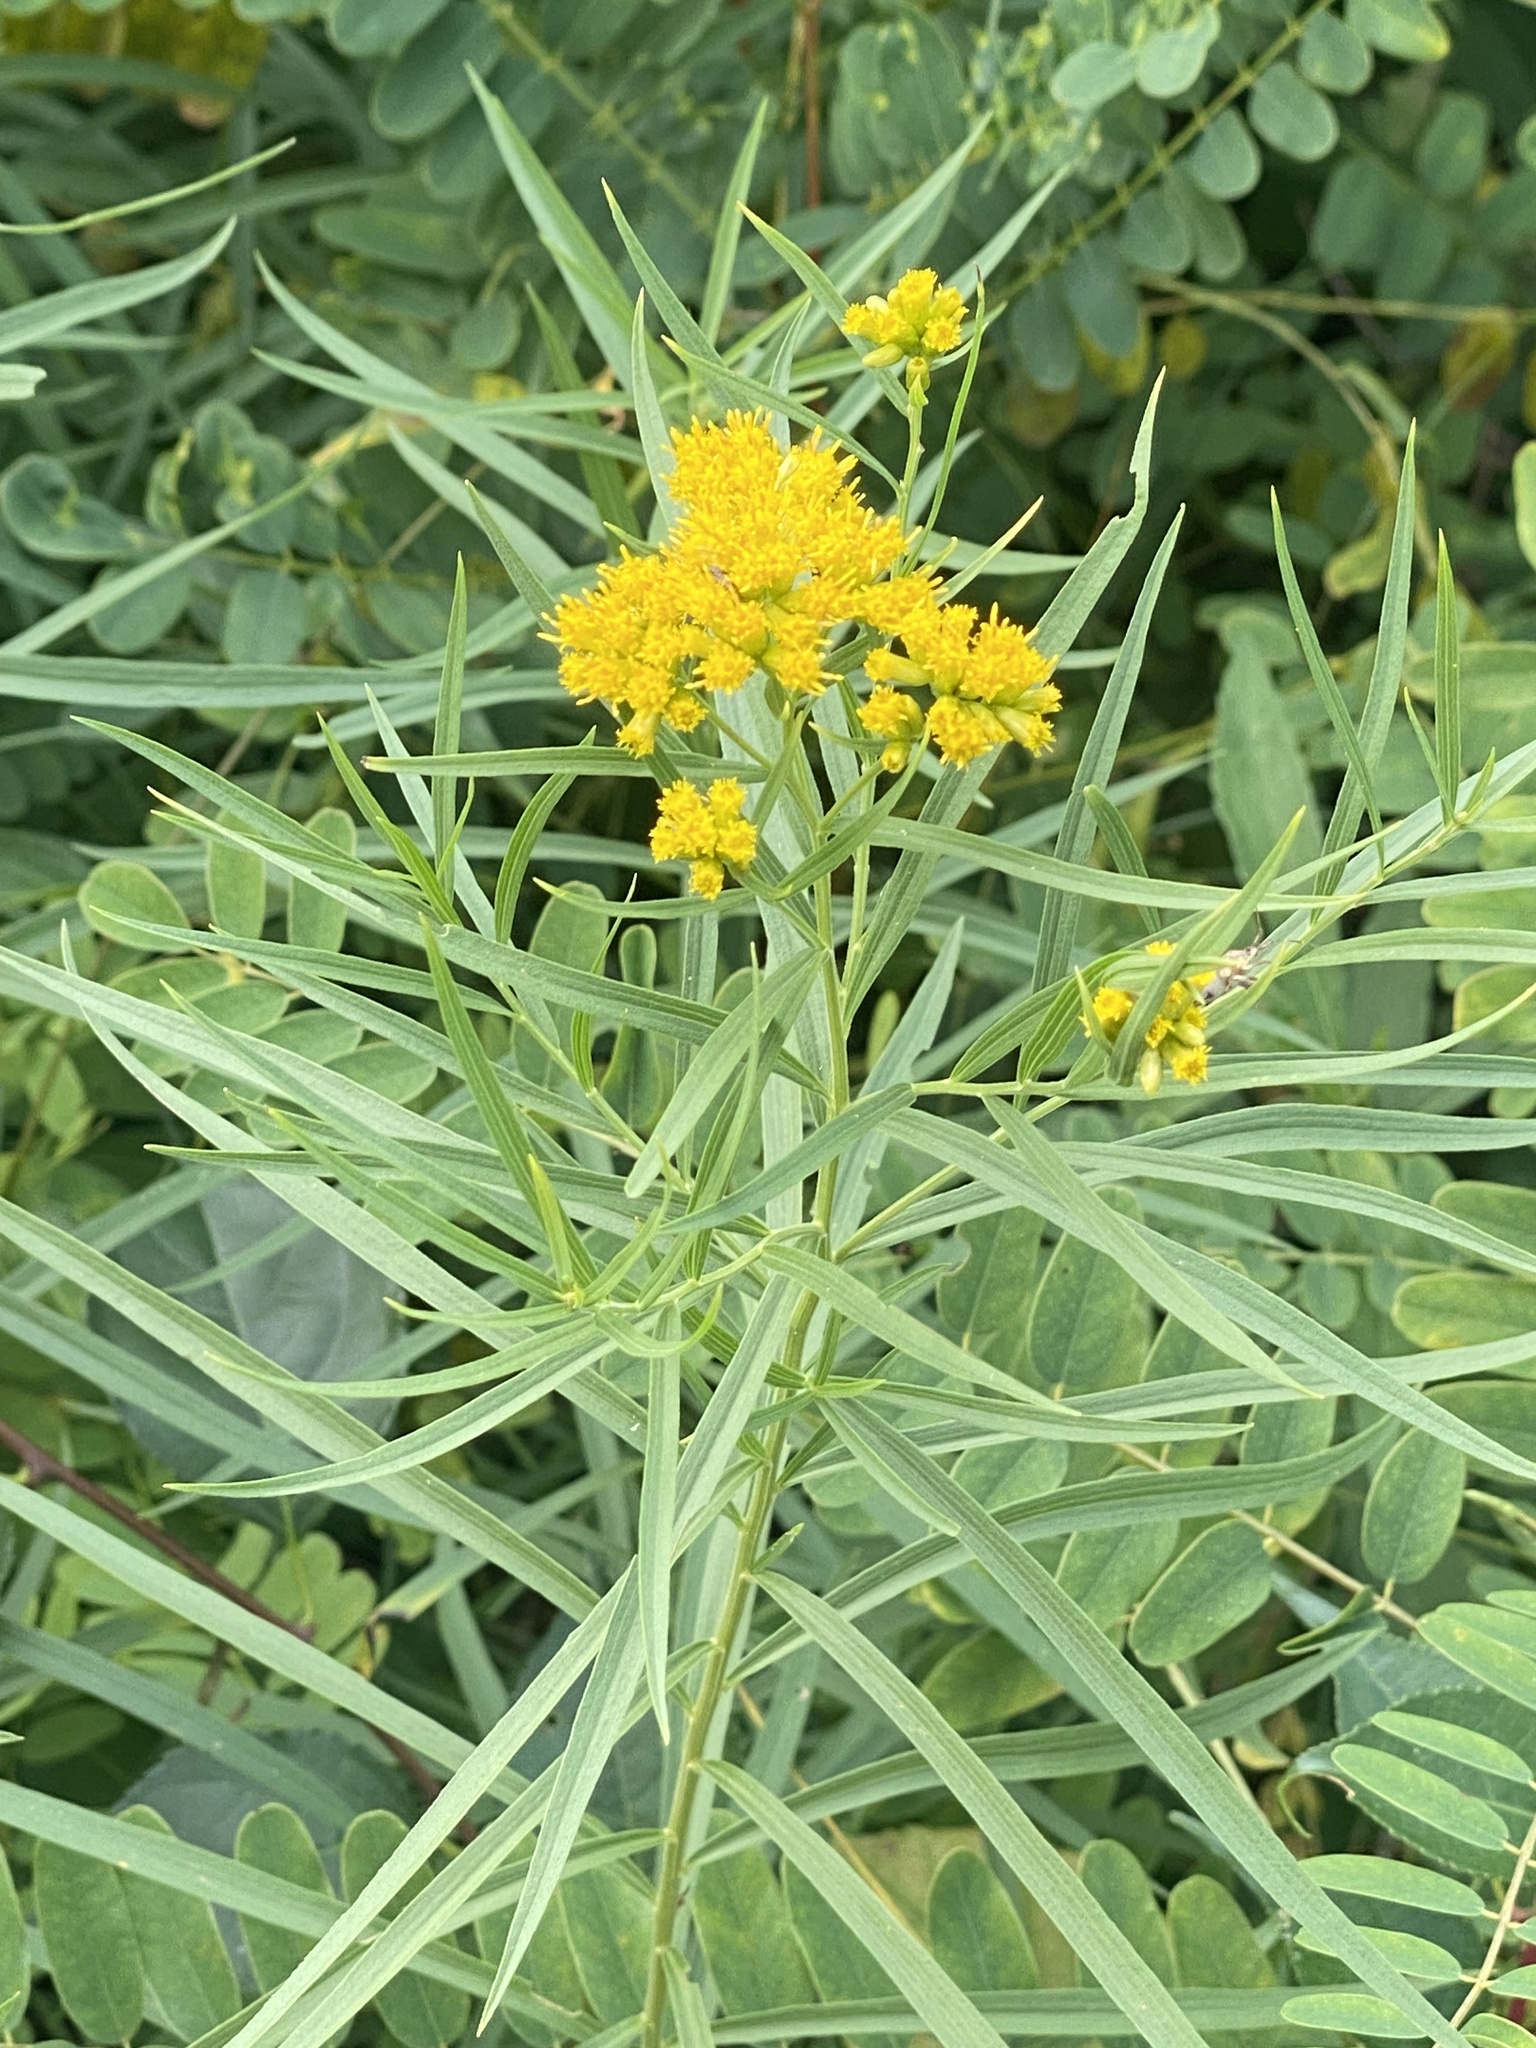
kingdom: Plantae
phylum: Tracheophyta
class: Magnoliopsida
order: Asterales
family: Asteraceae
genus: Euthamia
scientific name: Euthamia graminifolia
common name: Common goldentop
